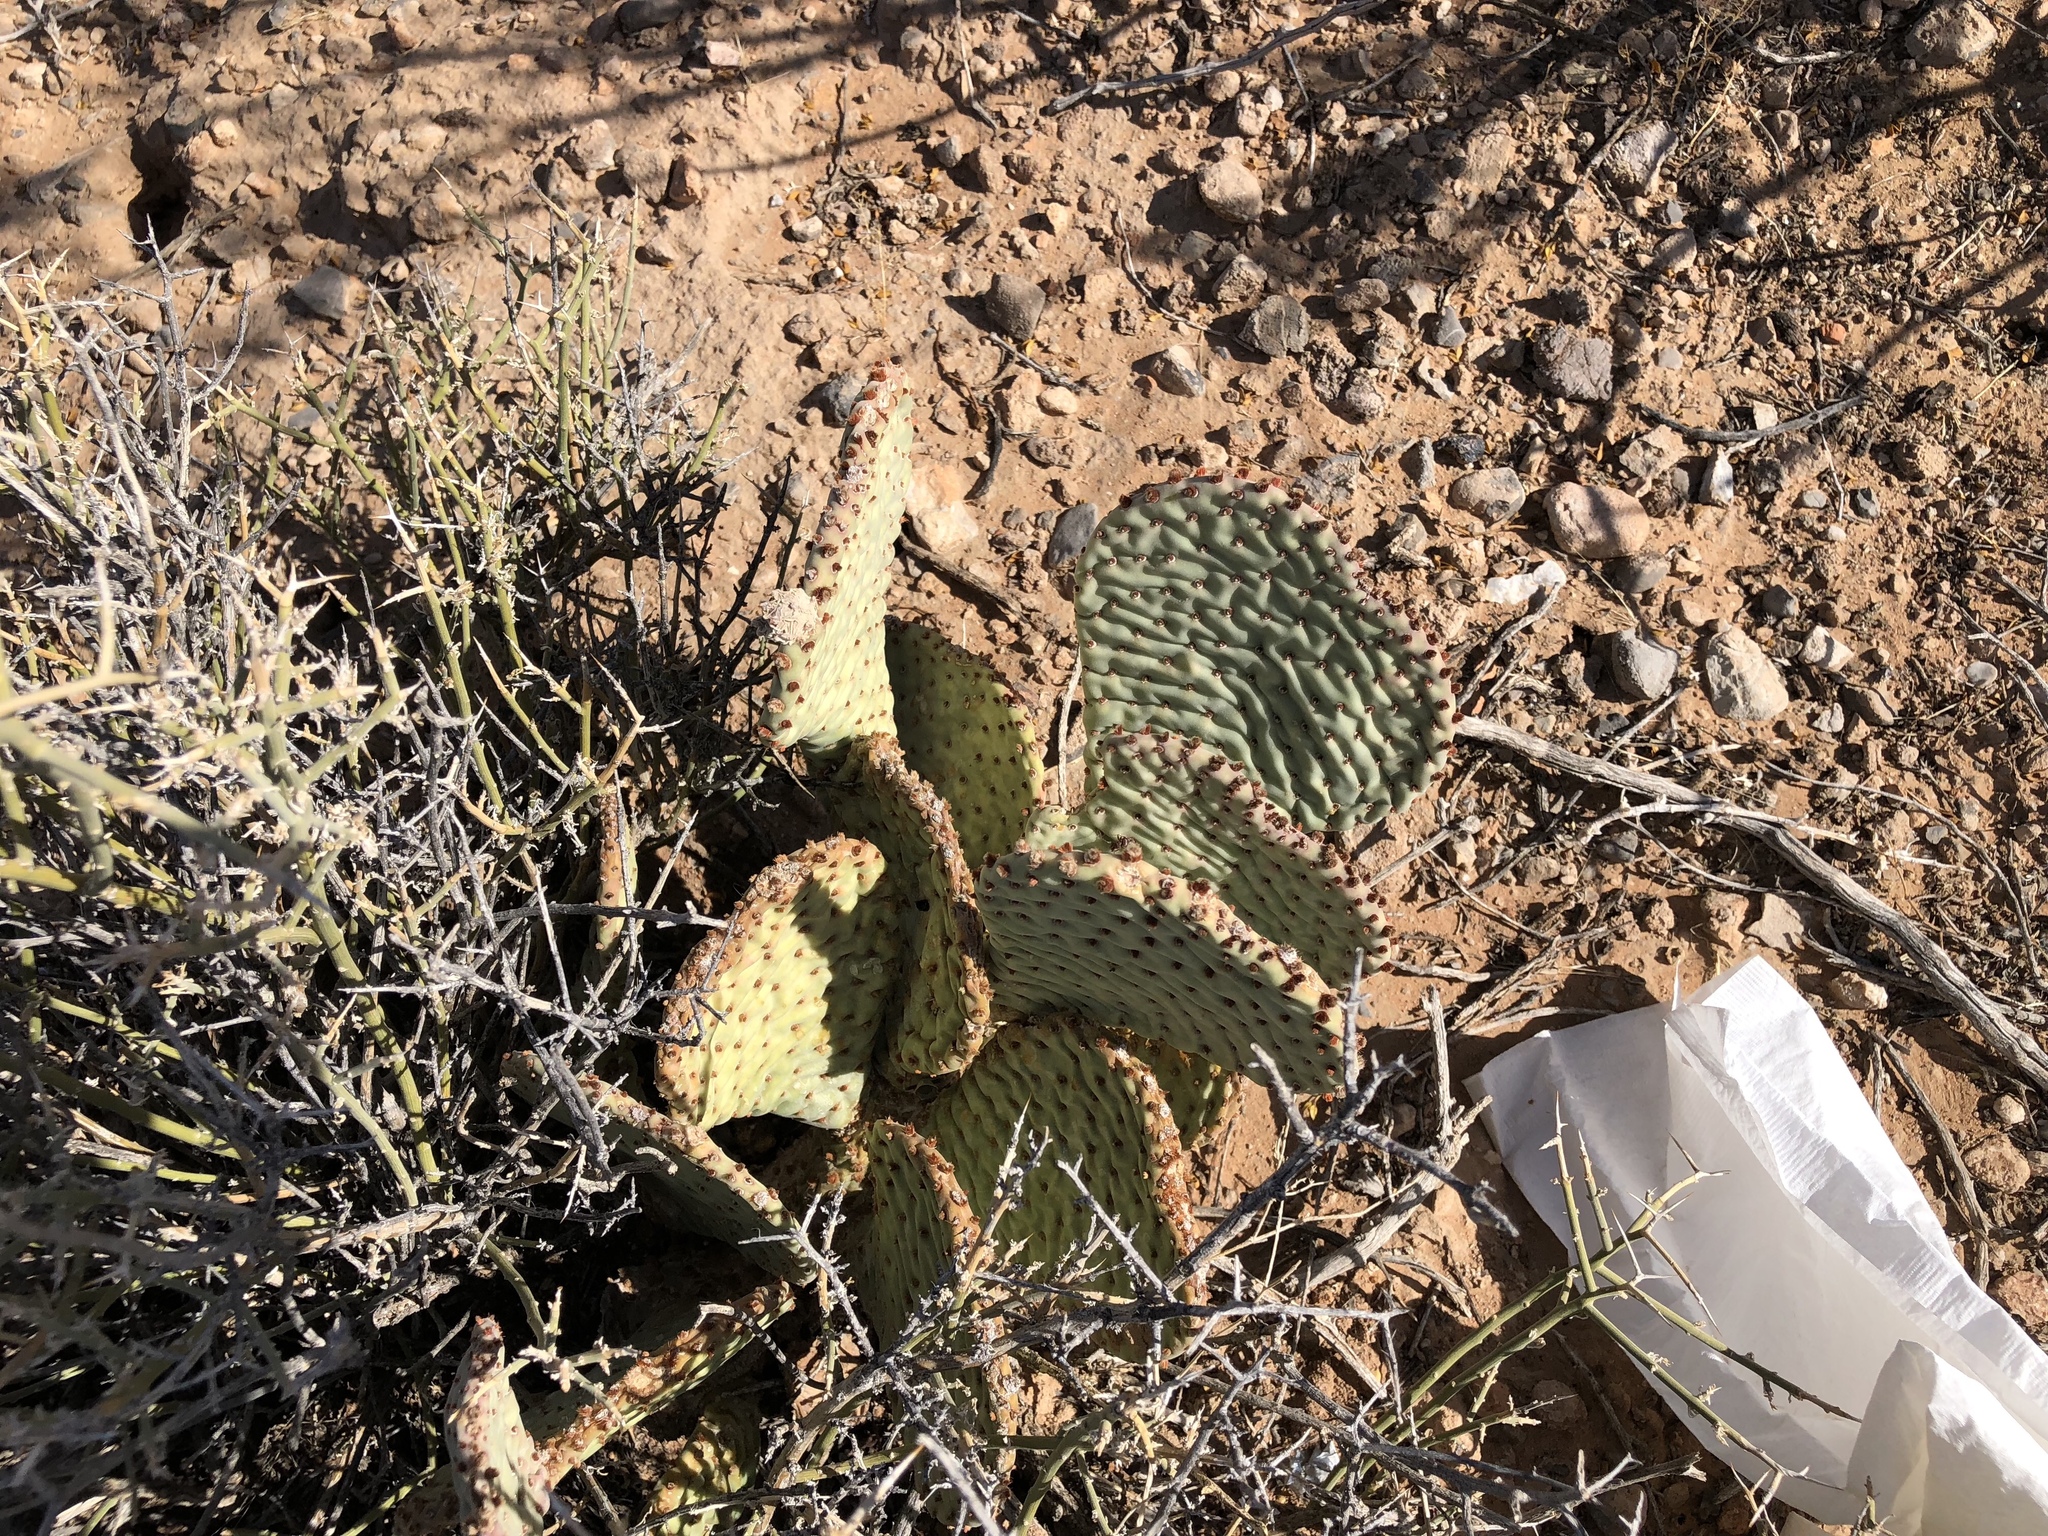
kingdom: Plantae
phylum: Tracheophyta
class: Magnoliopsida
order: Caryophyllales
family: Cactaceae
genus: Opuntia
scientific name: Opuntia basilaris
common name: Beavertail prickly-pear
